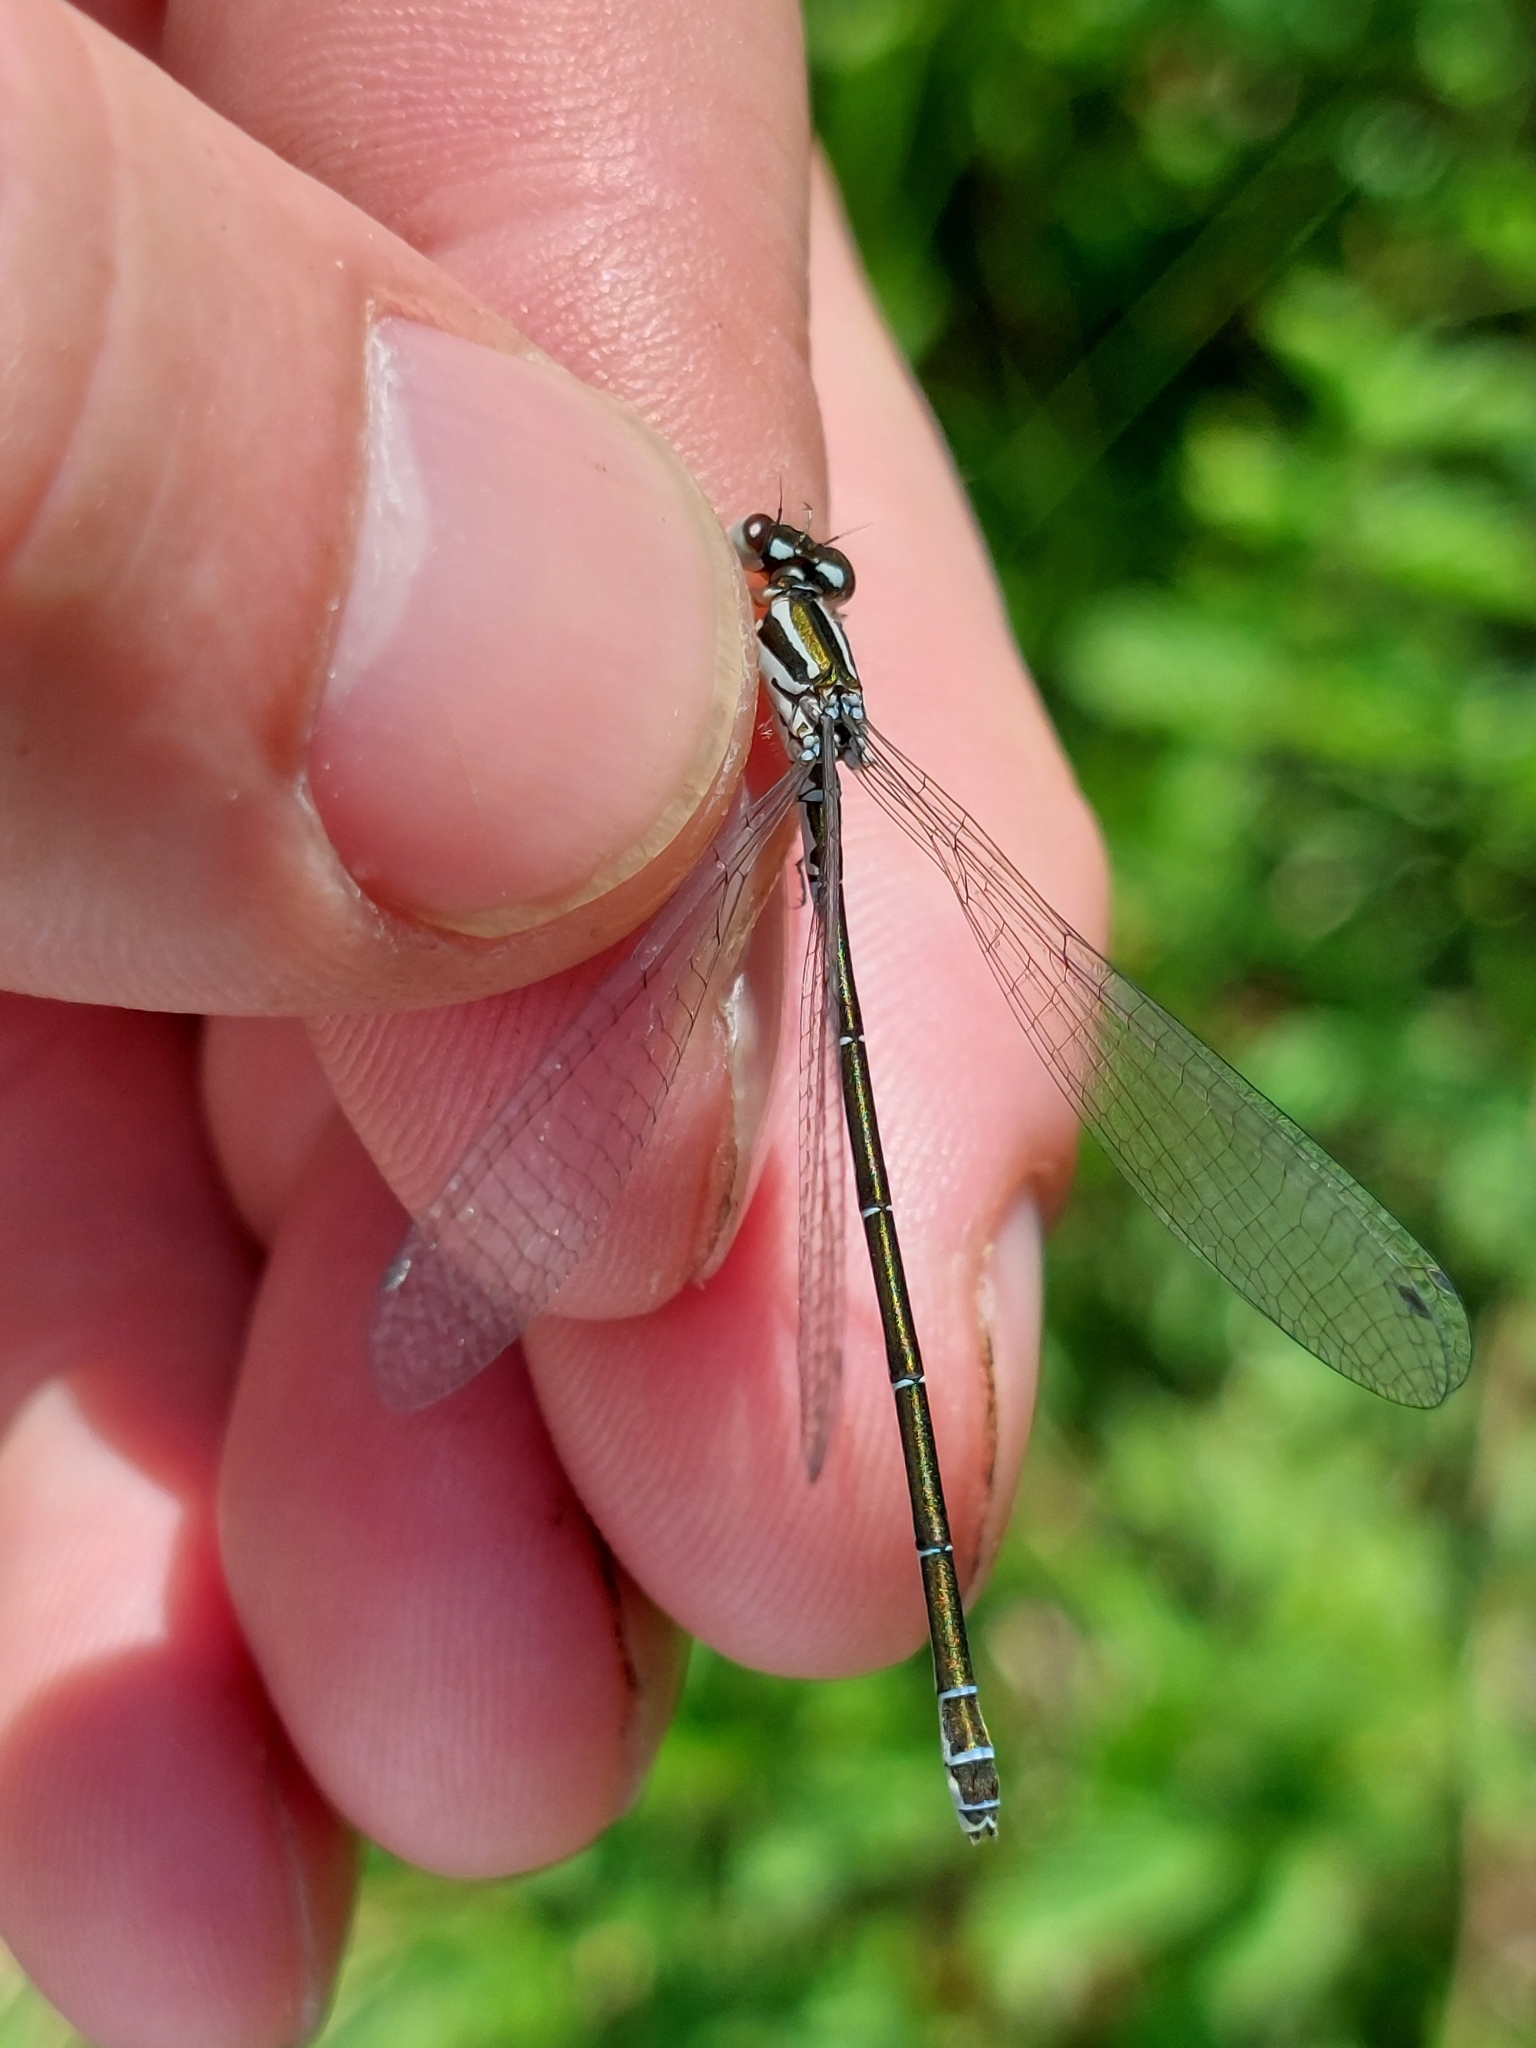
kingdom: Animalia
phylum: Arthropoda
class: Insecta
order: Odonata
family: Coenagrionidae
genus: Coenagrion
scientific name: Coenagrion puella
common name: Azure damselfly
